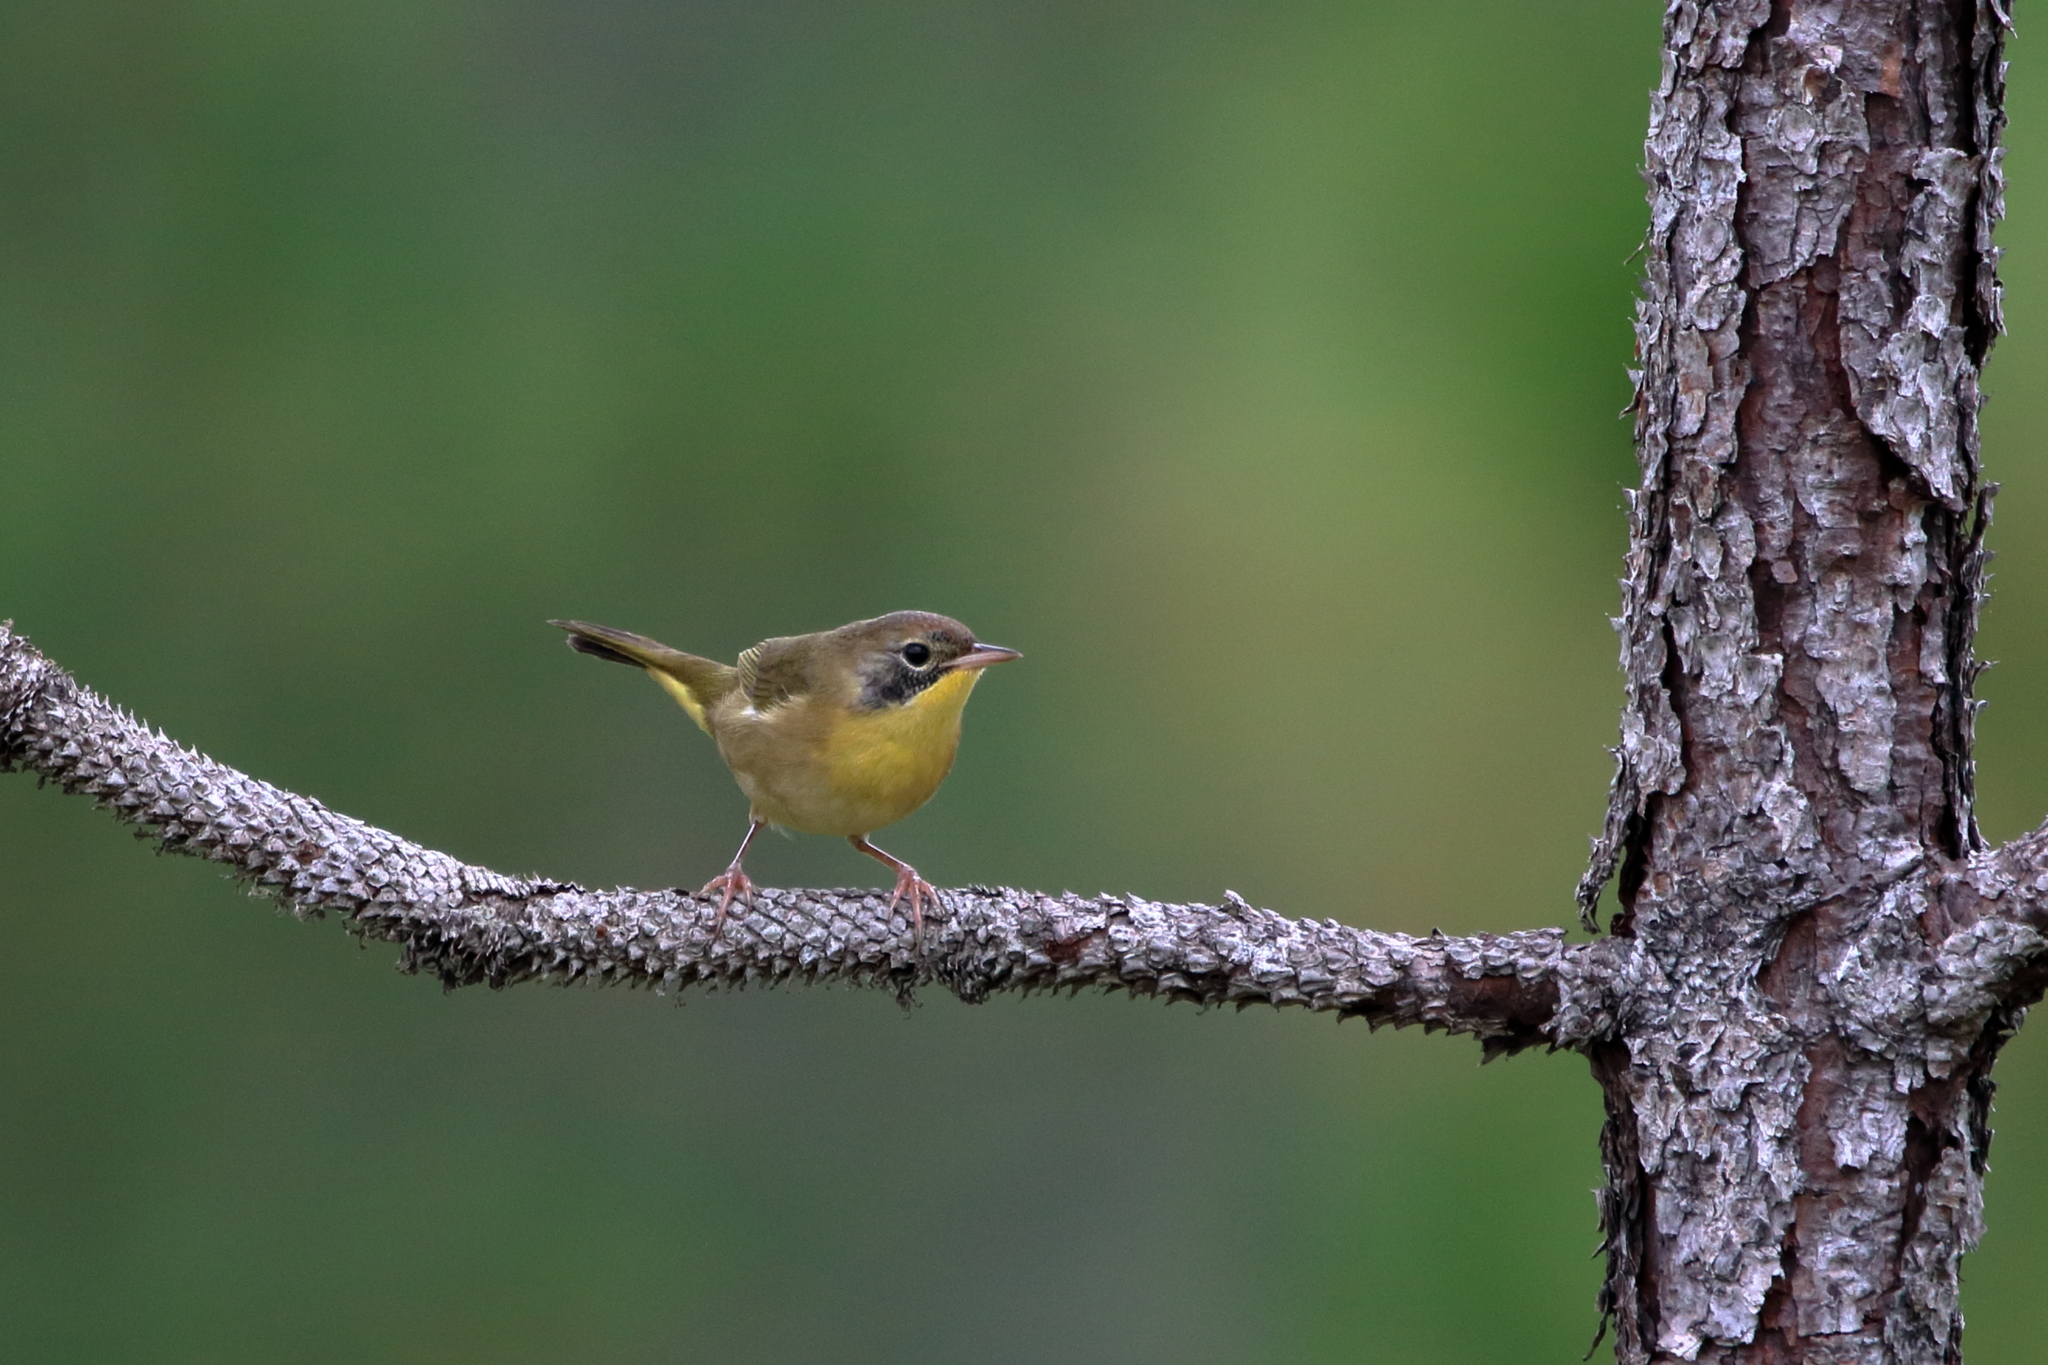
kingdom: Animalia
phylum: Chordata
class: Aves
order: Passeriformes
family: Parulidae
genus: Geothlypis
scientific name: Geothlypis trichas
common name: Common yellowthroat
